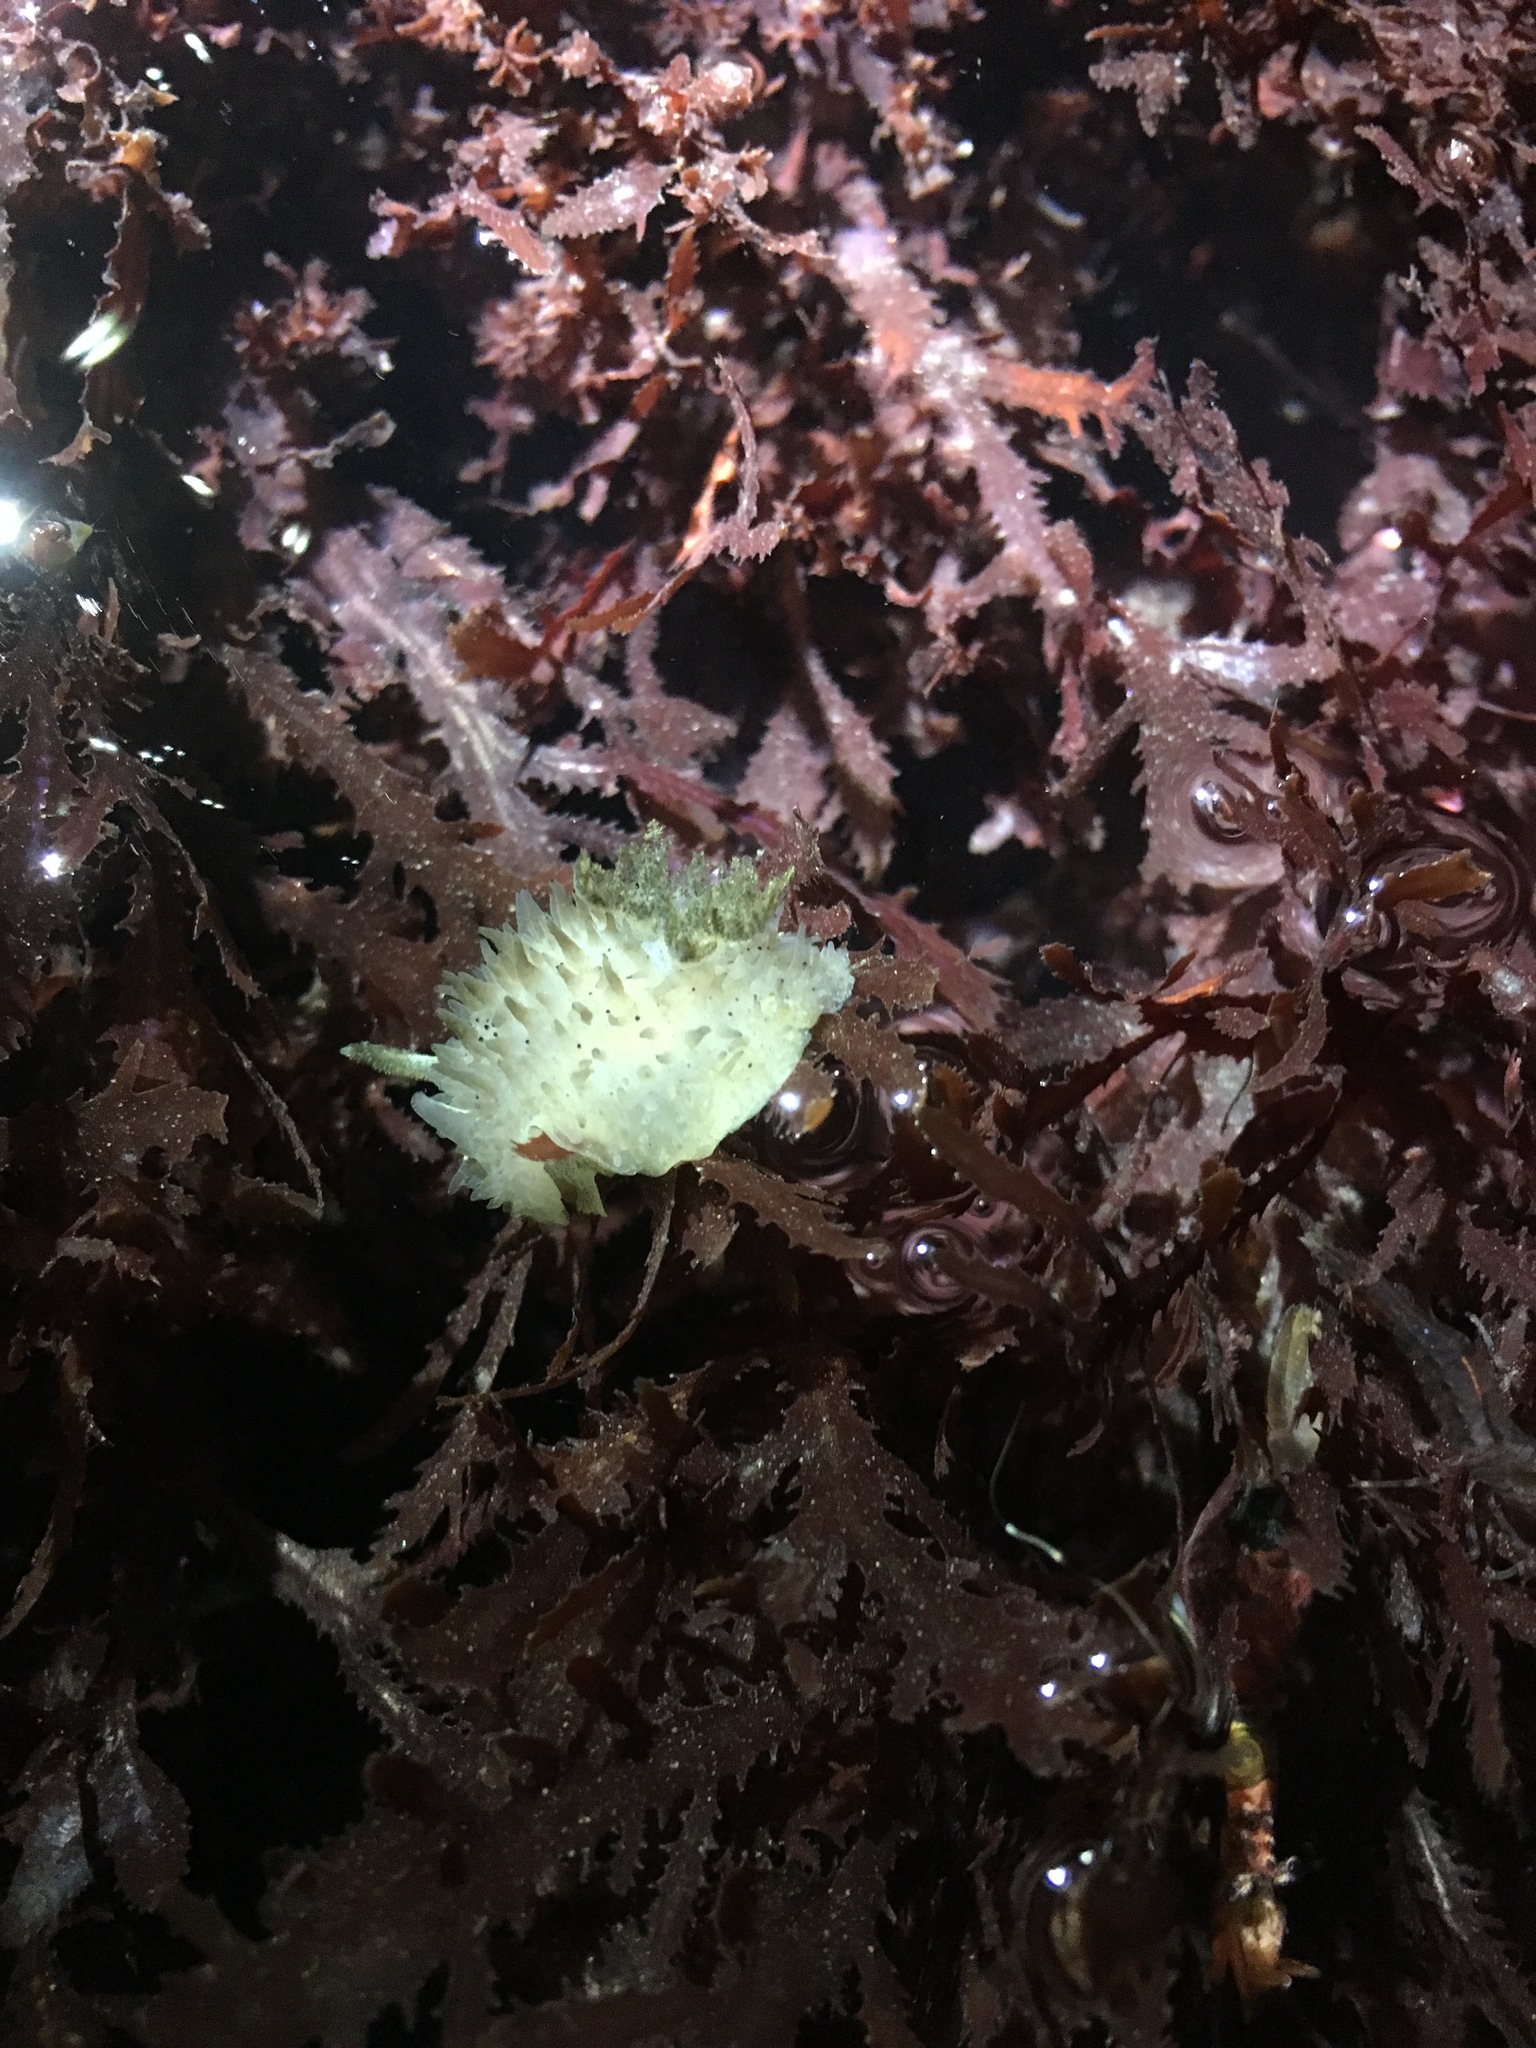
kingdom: Animalia
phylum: Mollusca
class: Gastropoda
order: Nudibranchia
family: Onchidorididae
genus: Acanthodoris
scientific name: Acanthodoris rhodoceras
